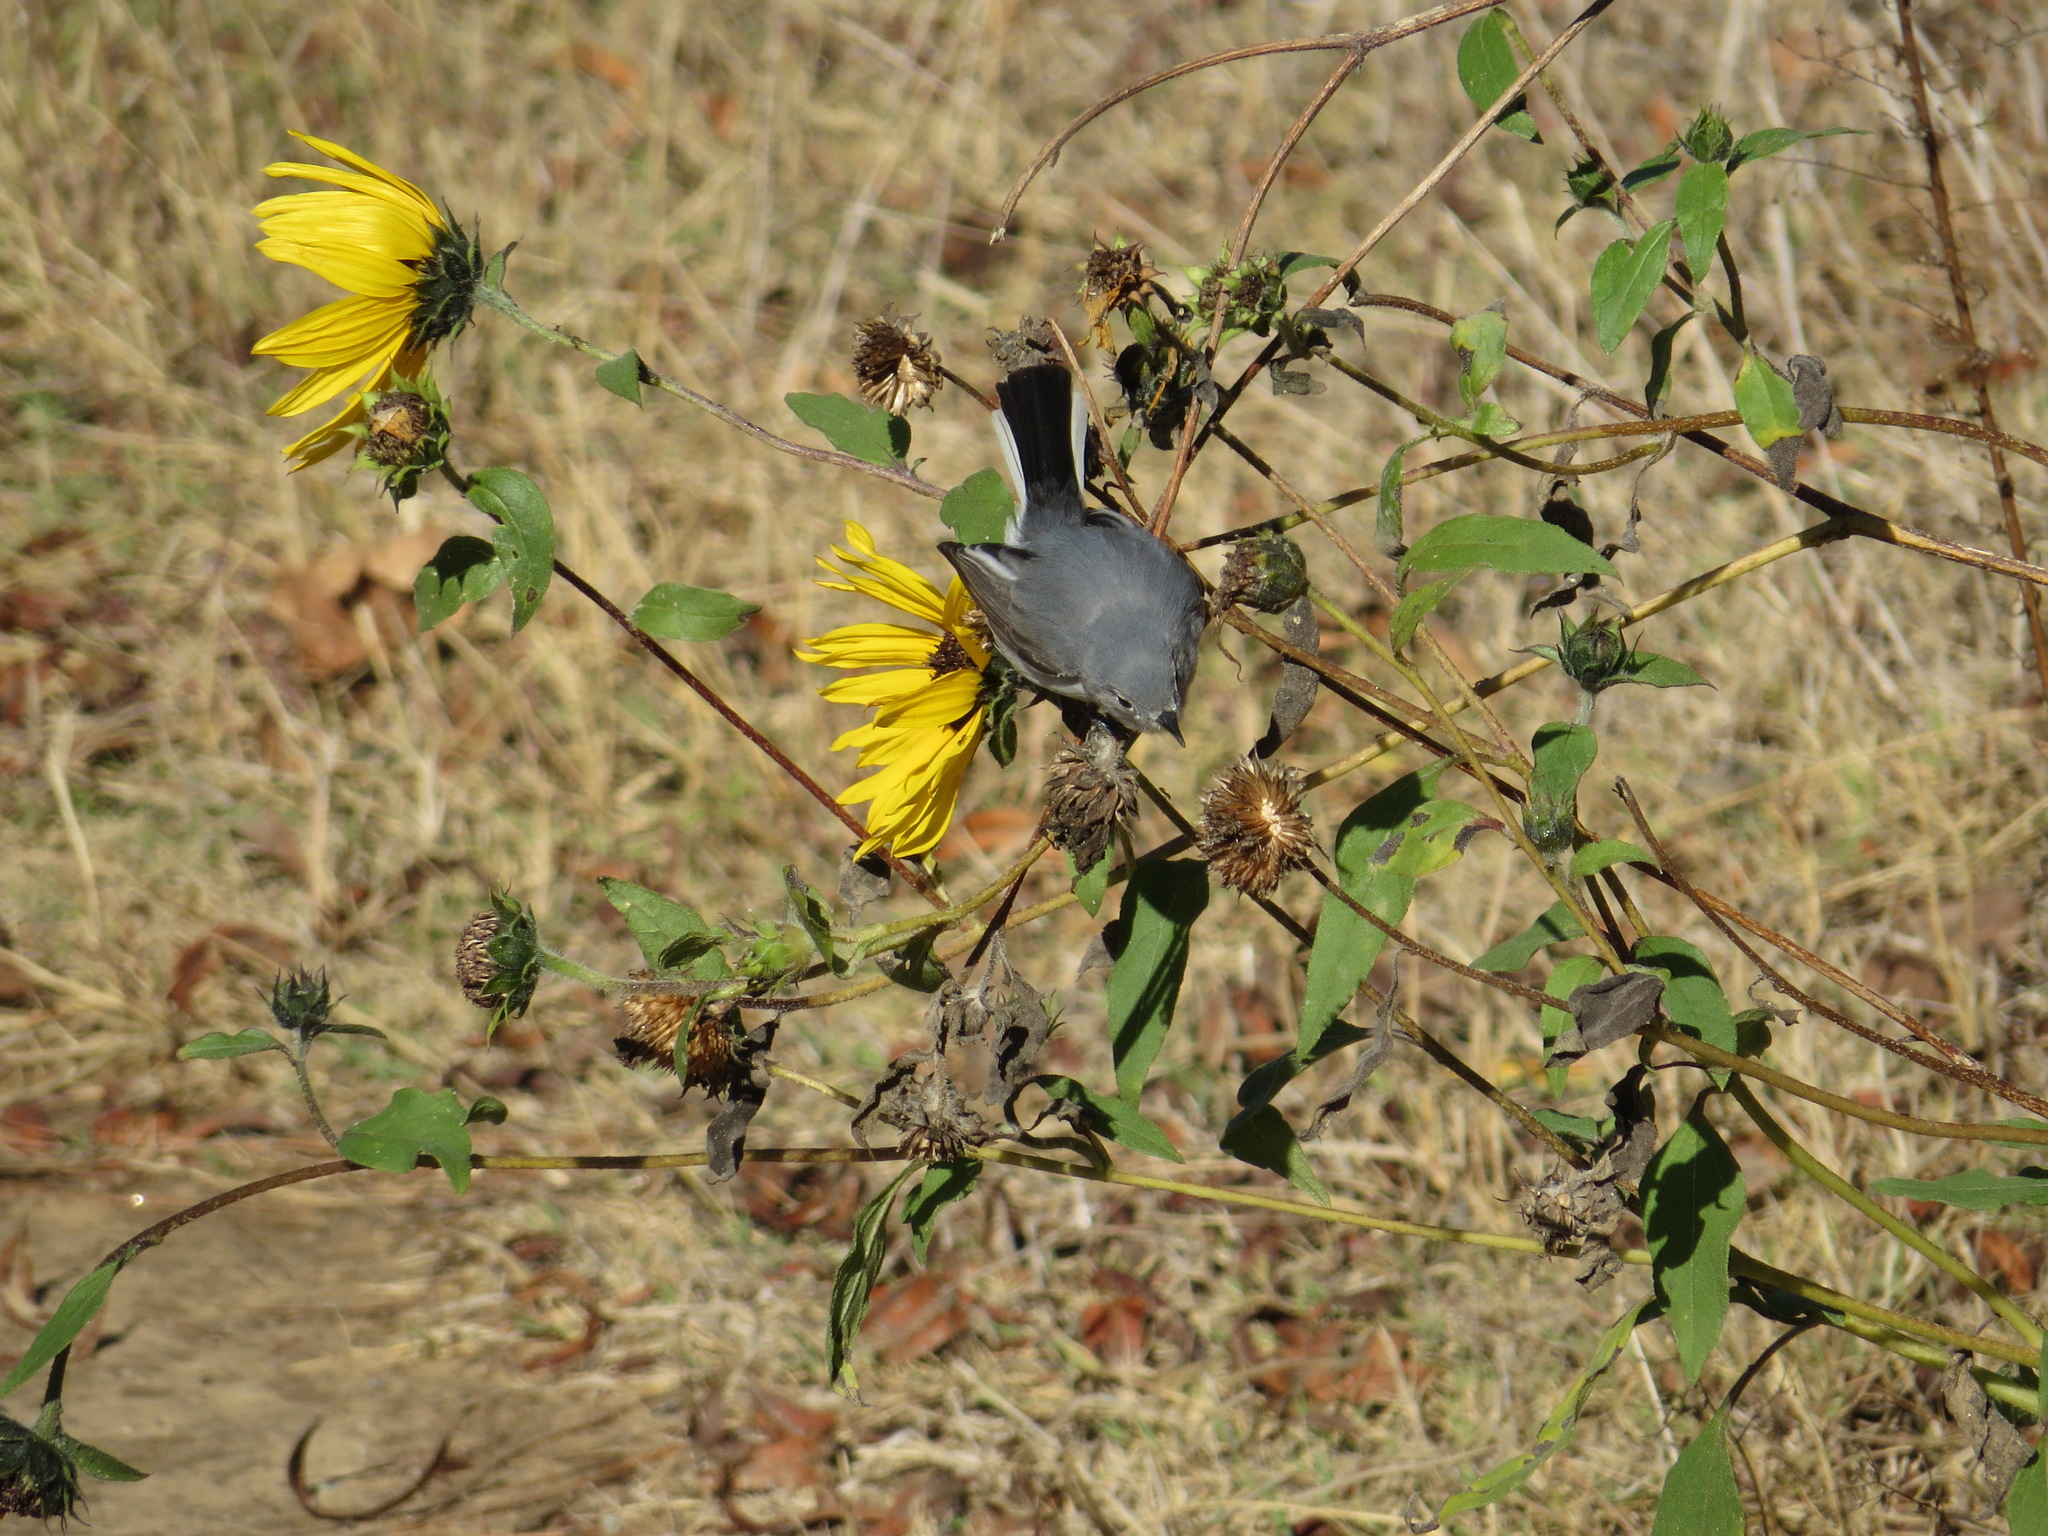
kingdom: Animalia
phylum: Chordata
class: Aves
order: Passeriformes
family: Polioptilidae
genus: Polioptila
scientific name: Polioptila caerulea
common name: Blue-gray gnatcatcher
